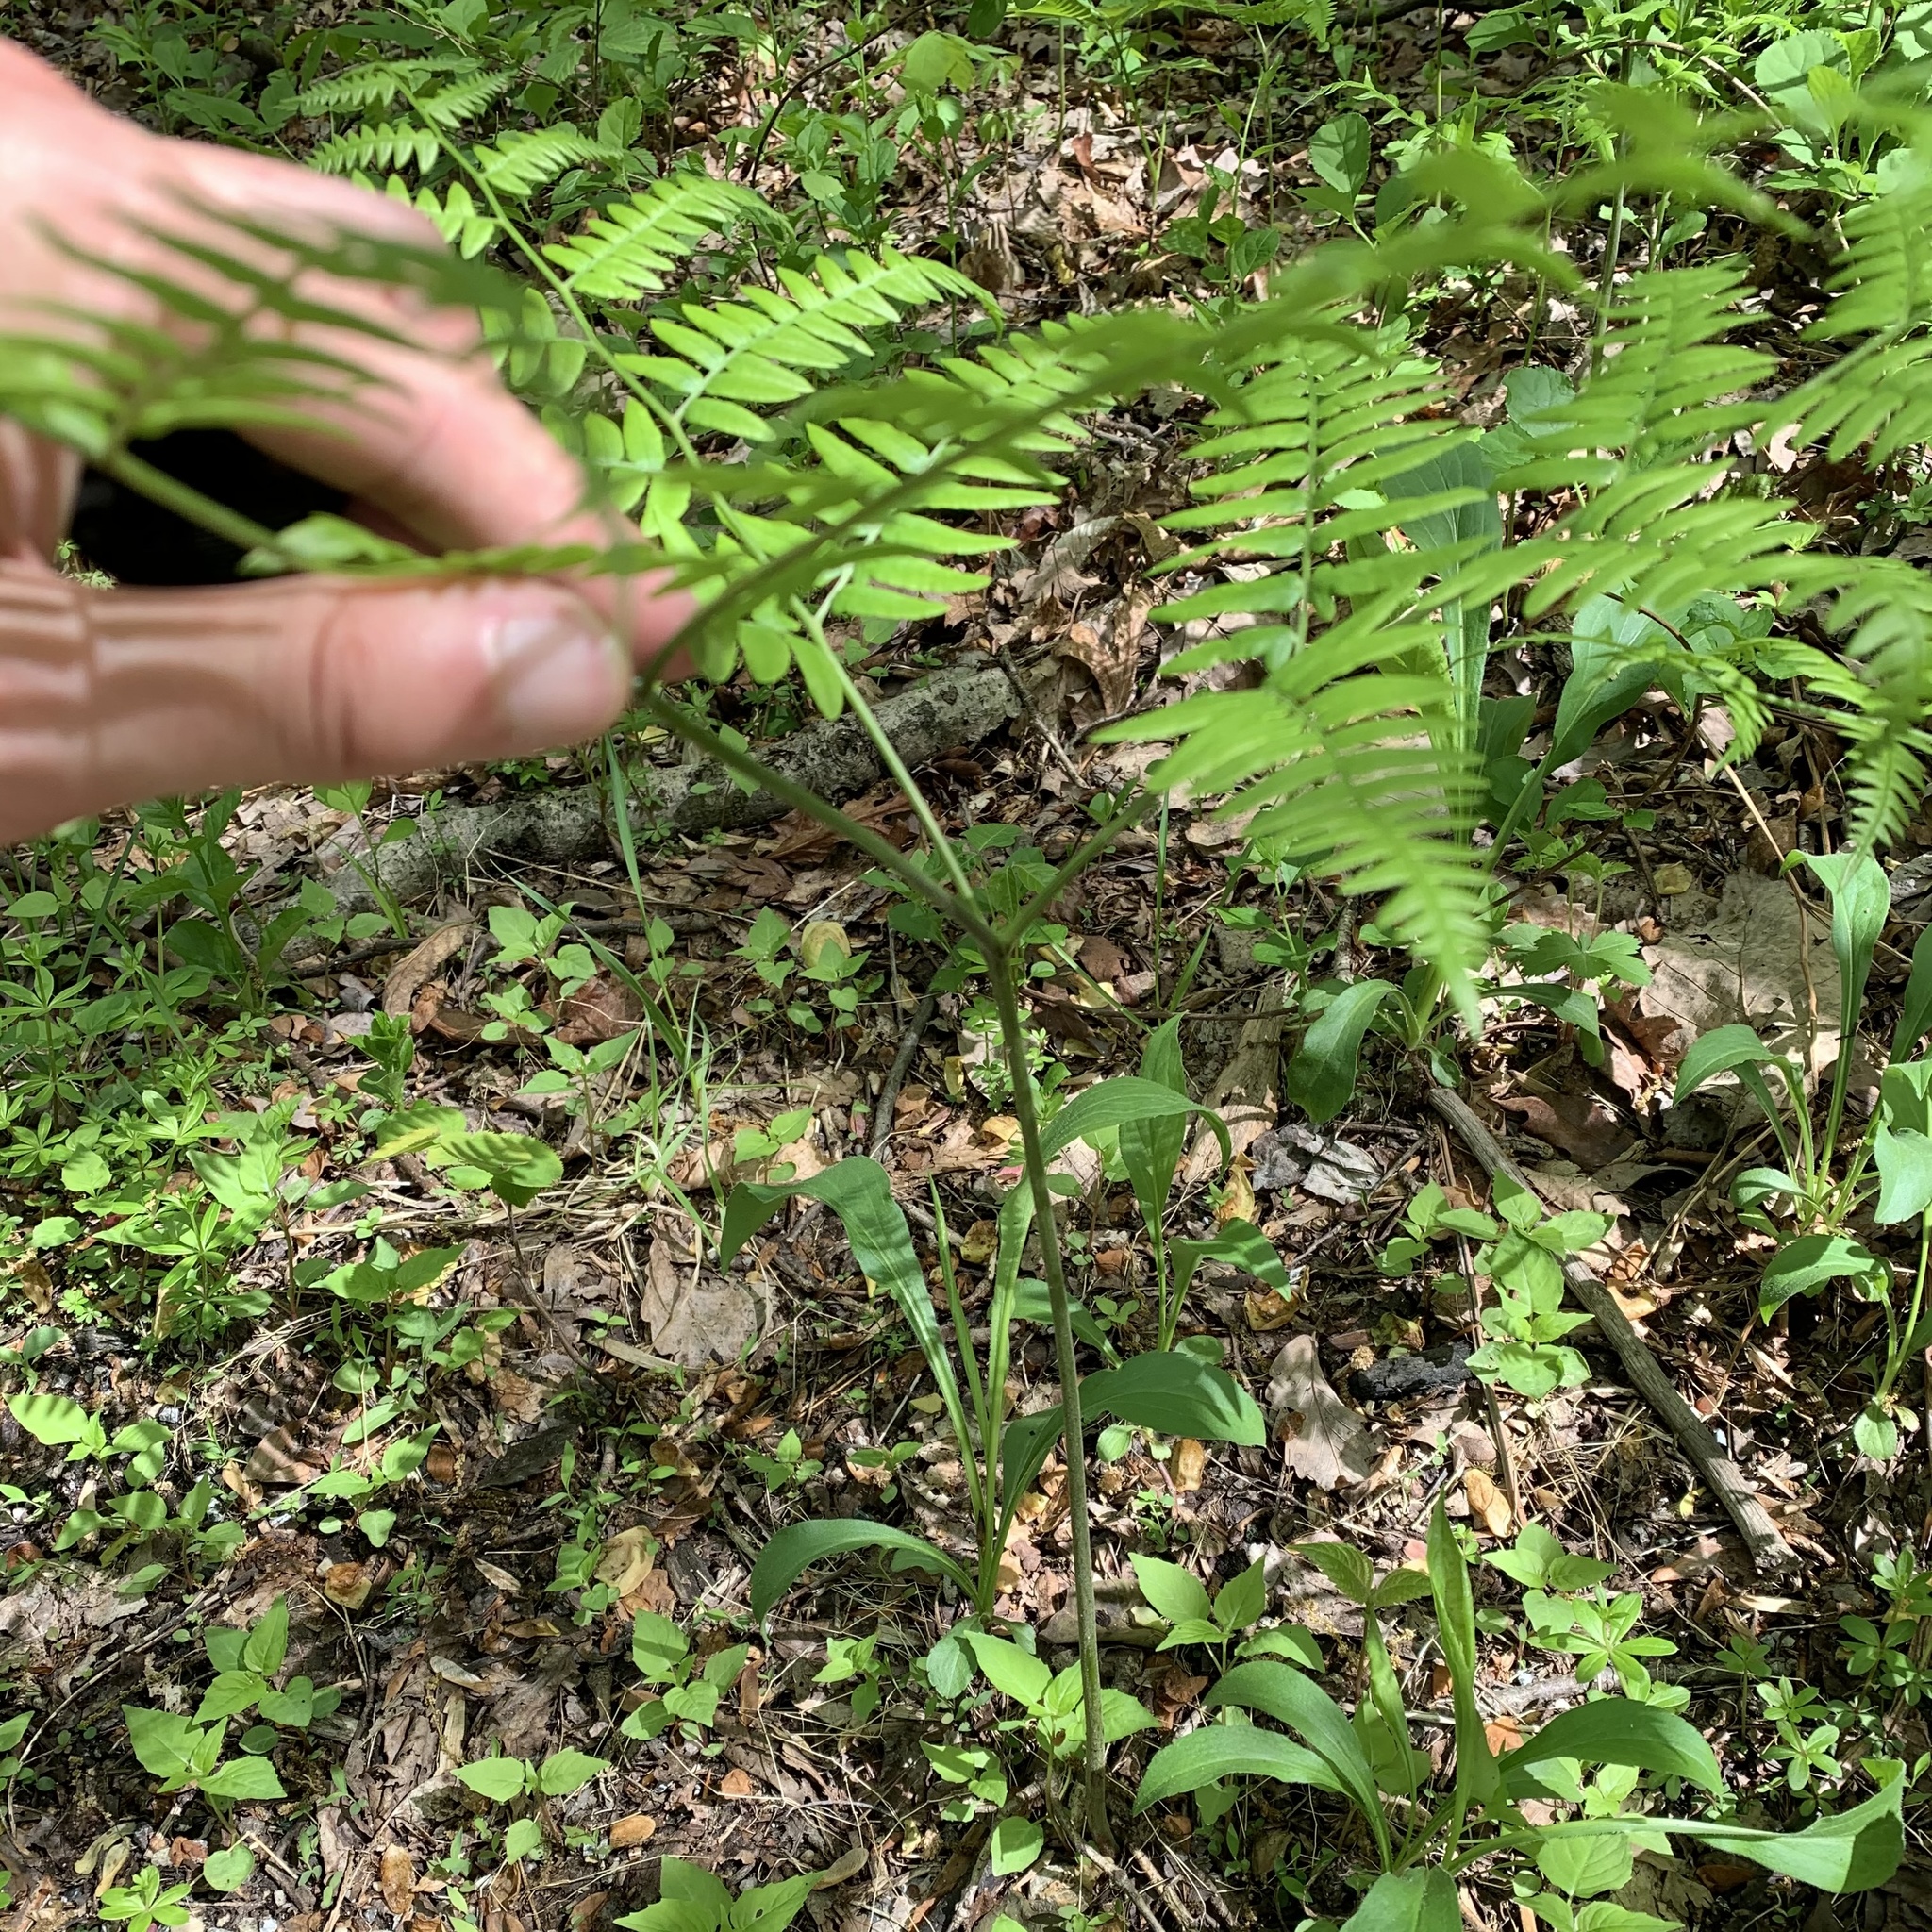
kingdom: Plantae
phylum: Tracheophyta
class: Polypodiopsida
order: Polypodiales
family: Dennstaedtiaceae
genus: Pteridium
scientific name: Pteridium aquilinum
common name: Bracken
